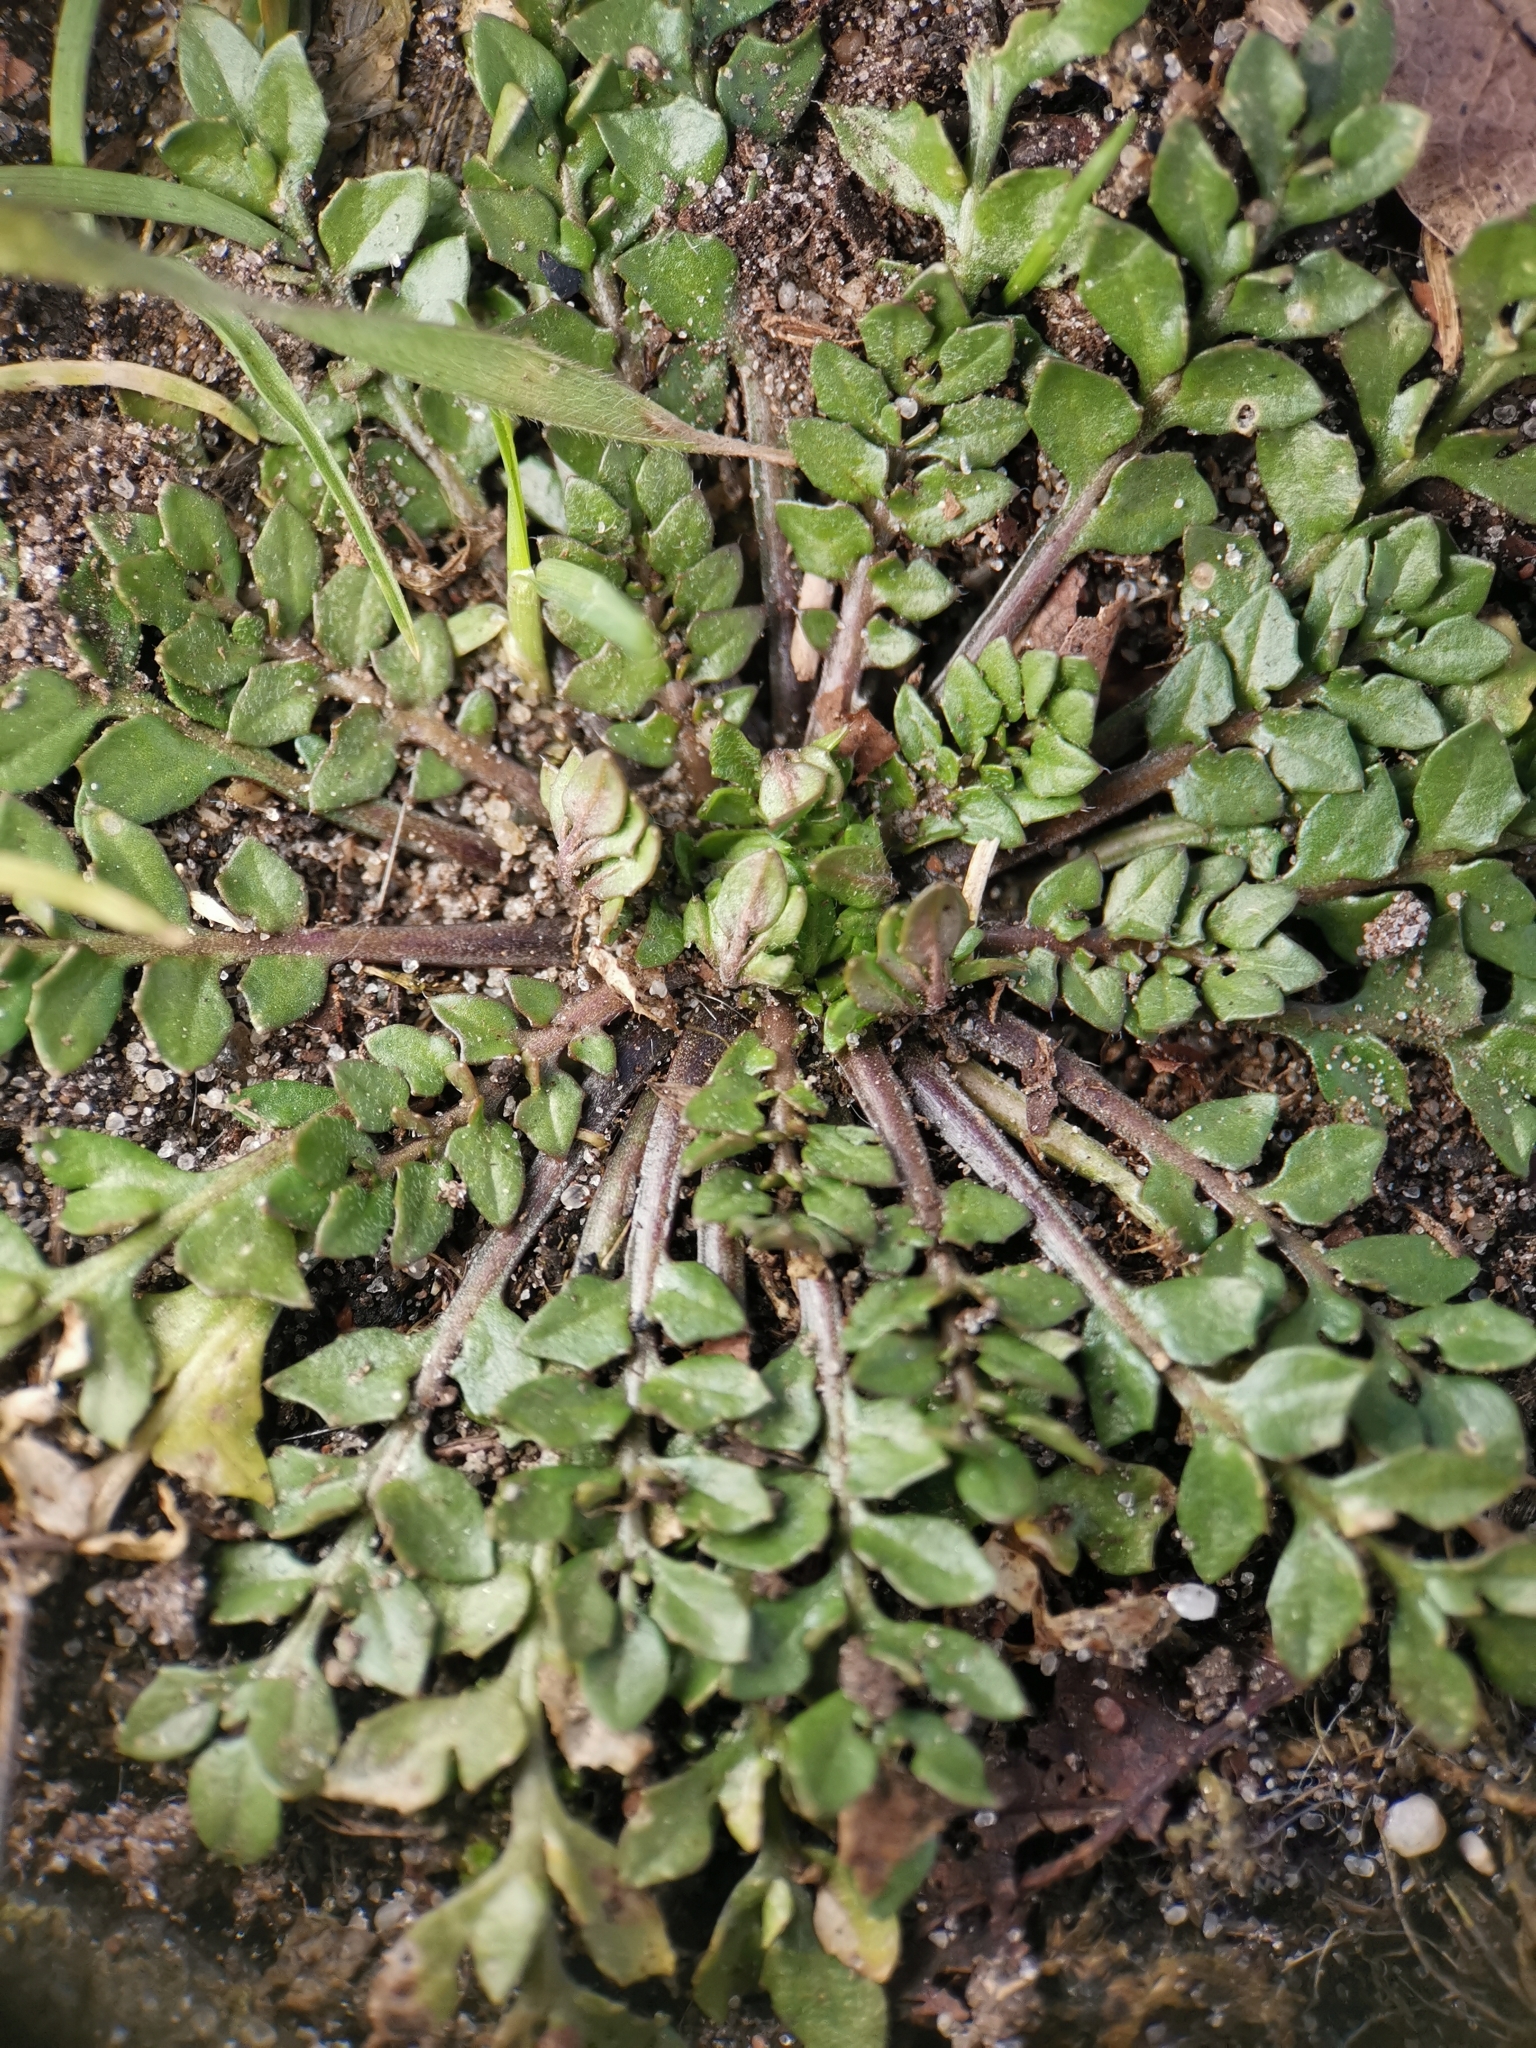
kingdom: Plantae
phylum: Tracheophyta
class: Magnoliopsida
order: Brassicales
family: Brassicaceae
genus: Capsella
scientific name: Capsella bursa-pastoris
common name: Shepherd's purse
